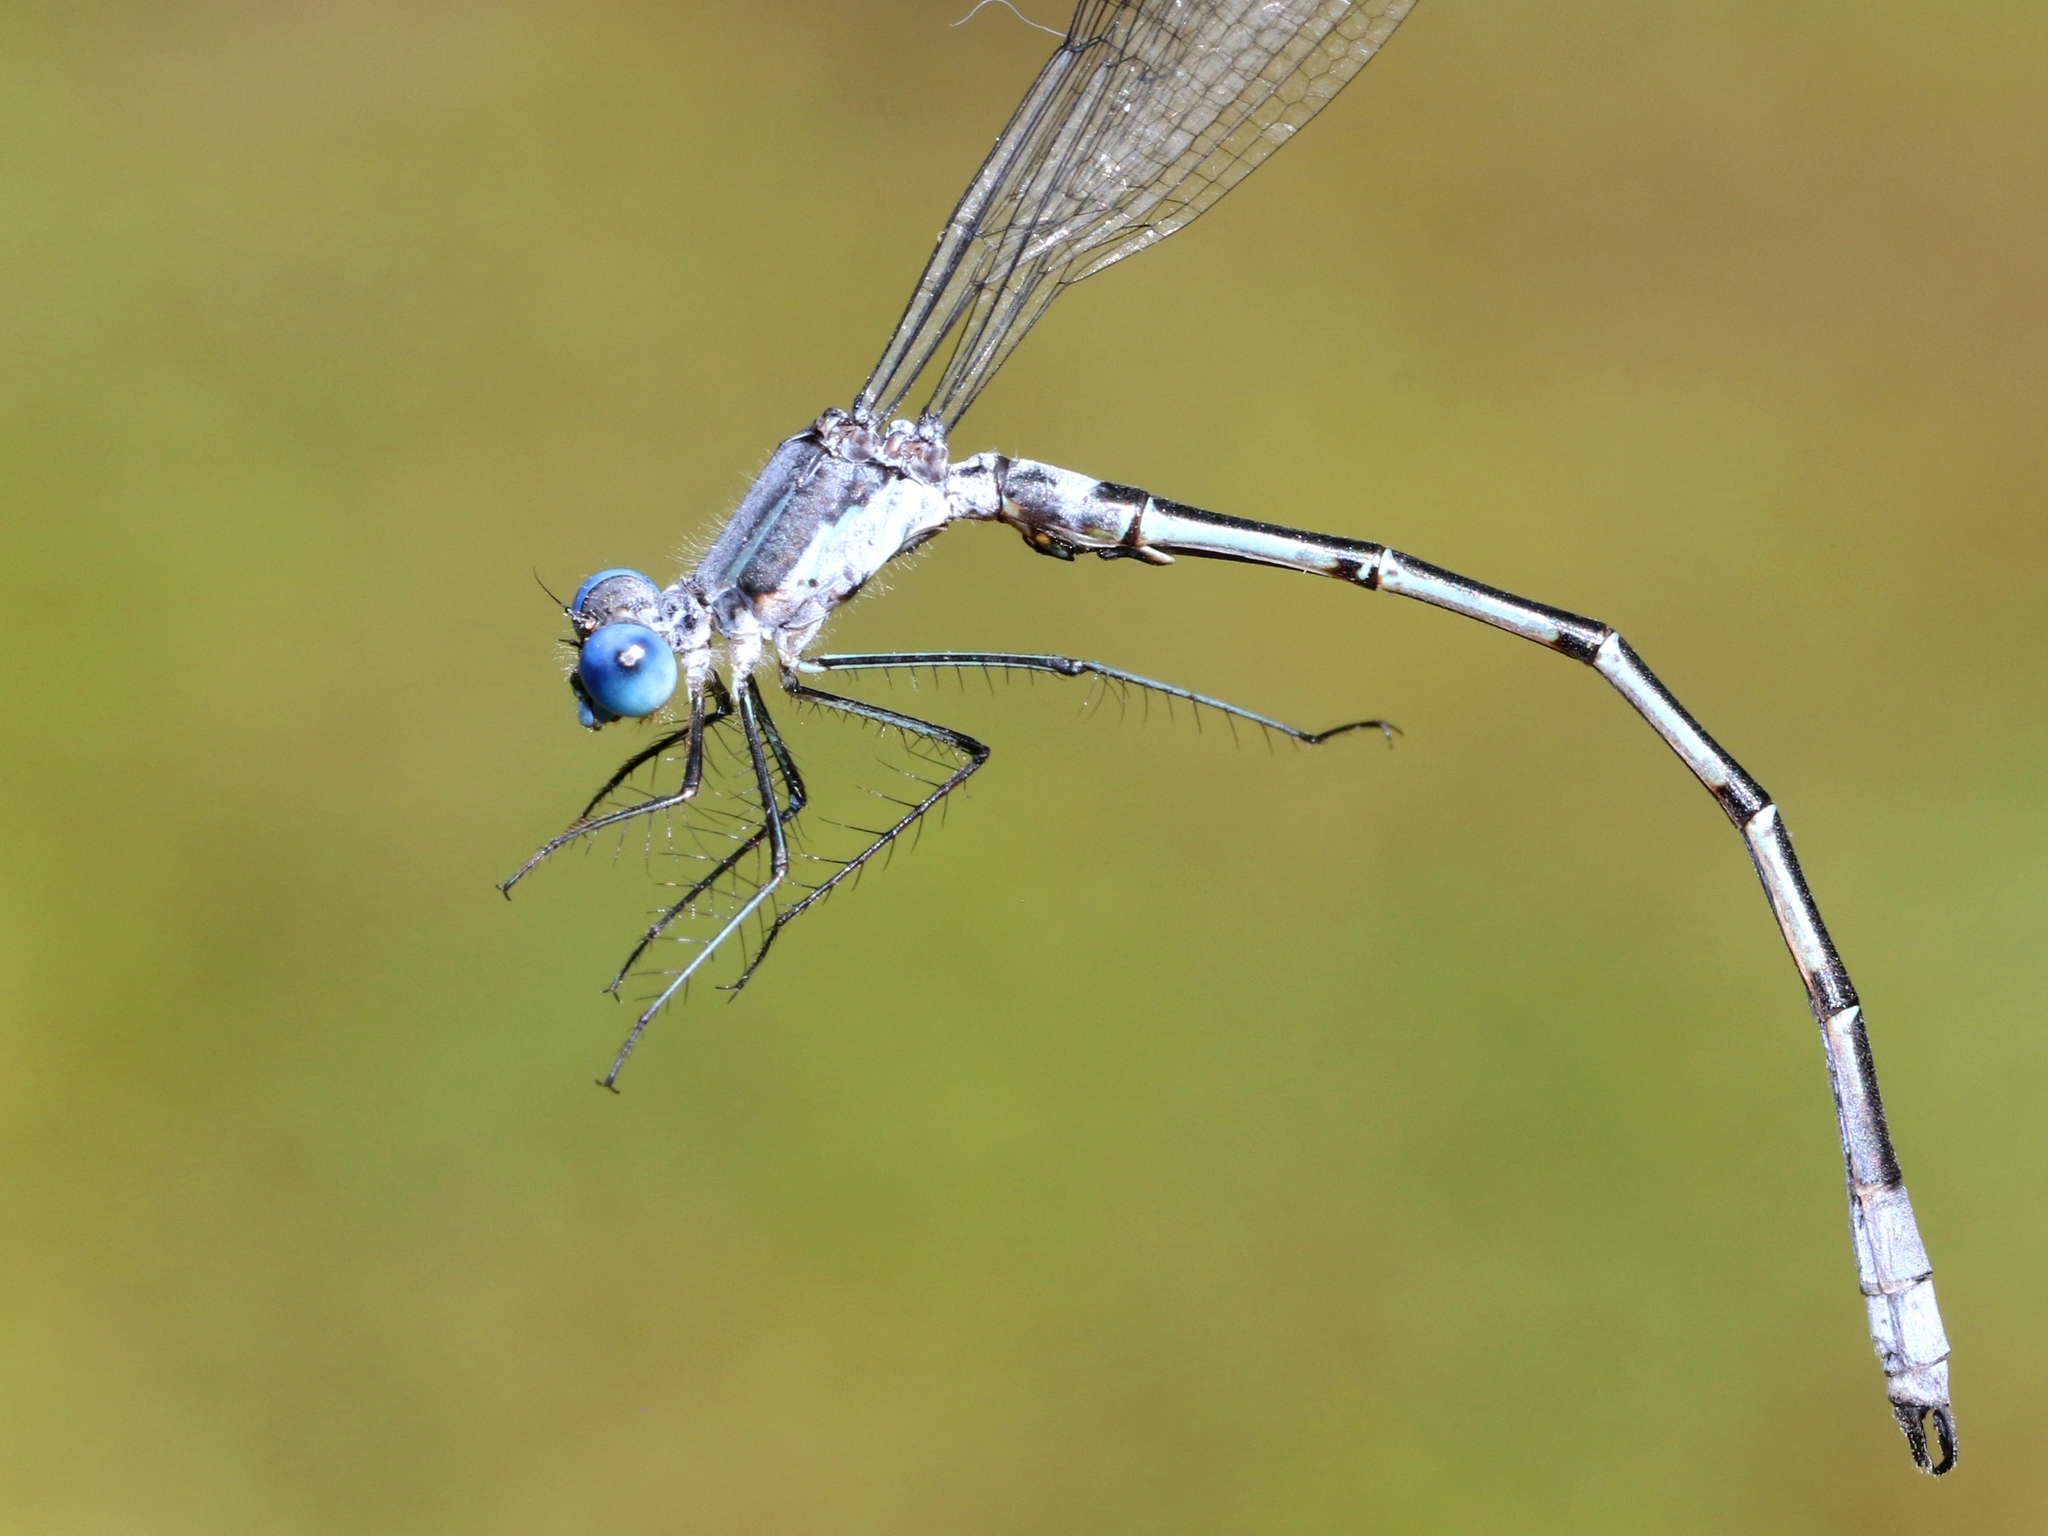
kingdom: Animalia
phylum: Arthropoda
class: Insecta
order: Odonata
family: Lestidae
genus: Lestes
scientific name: Lestes forcipatus
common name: Sweetflag spreadwing
